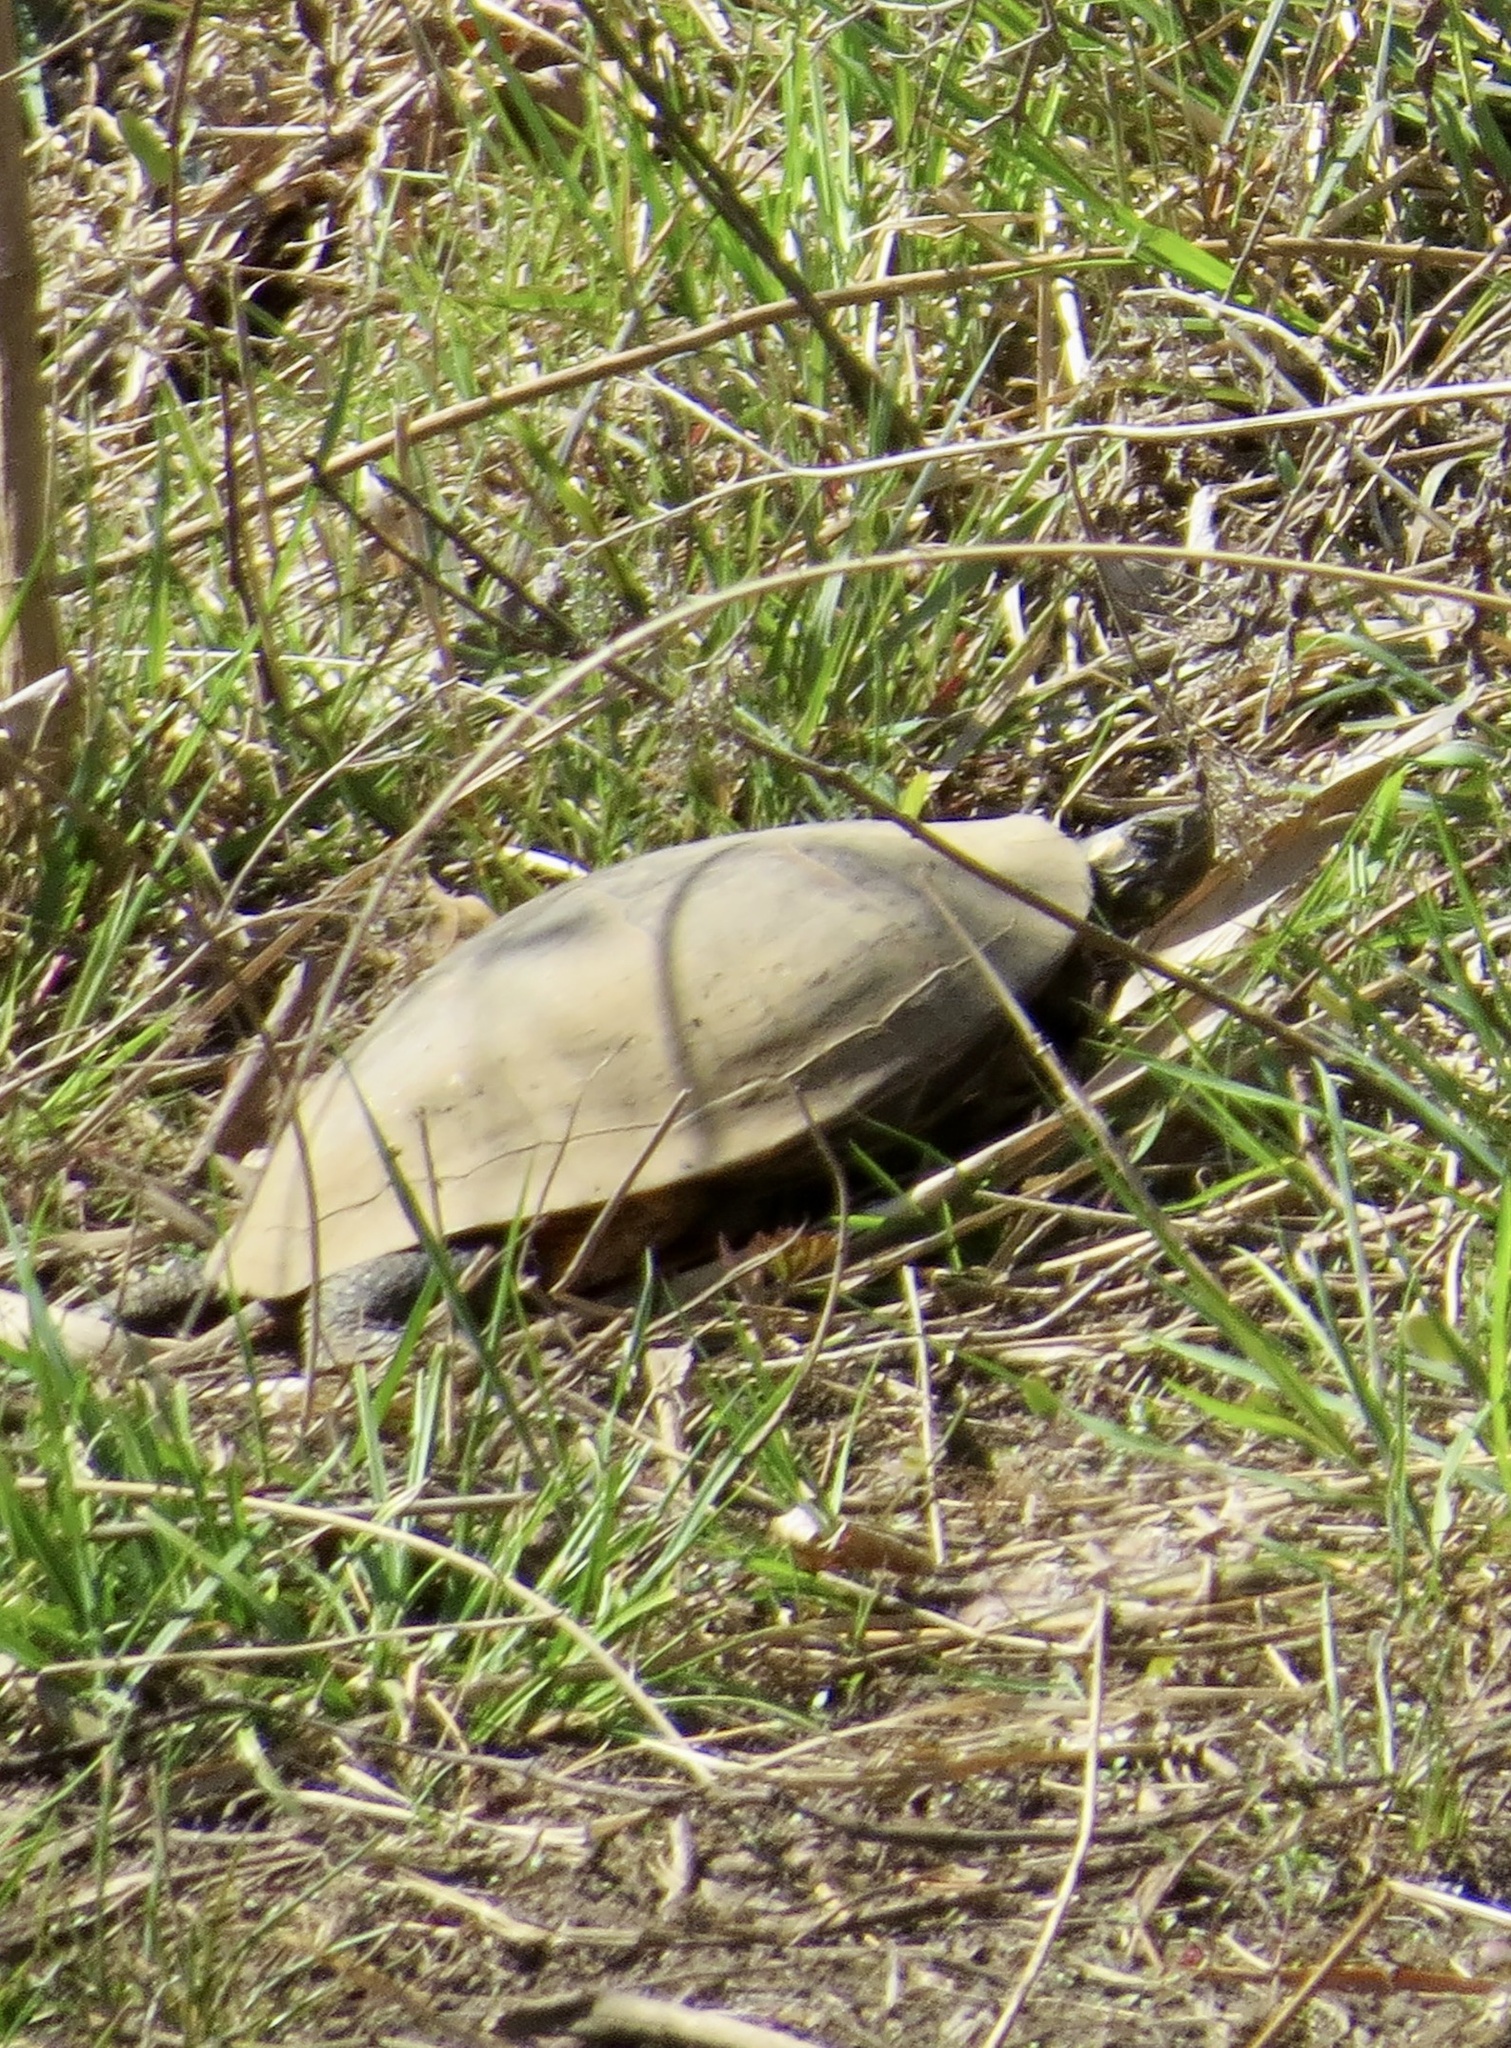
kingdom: Animalia
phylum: Chordata
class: Testudines
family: Emydidae
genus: Pseudemys
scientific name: Pseudemys rubriventris
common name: American red-bellied turtle
